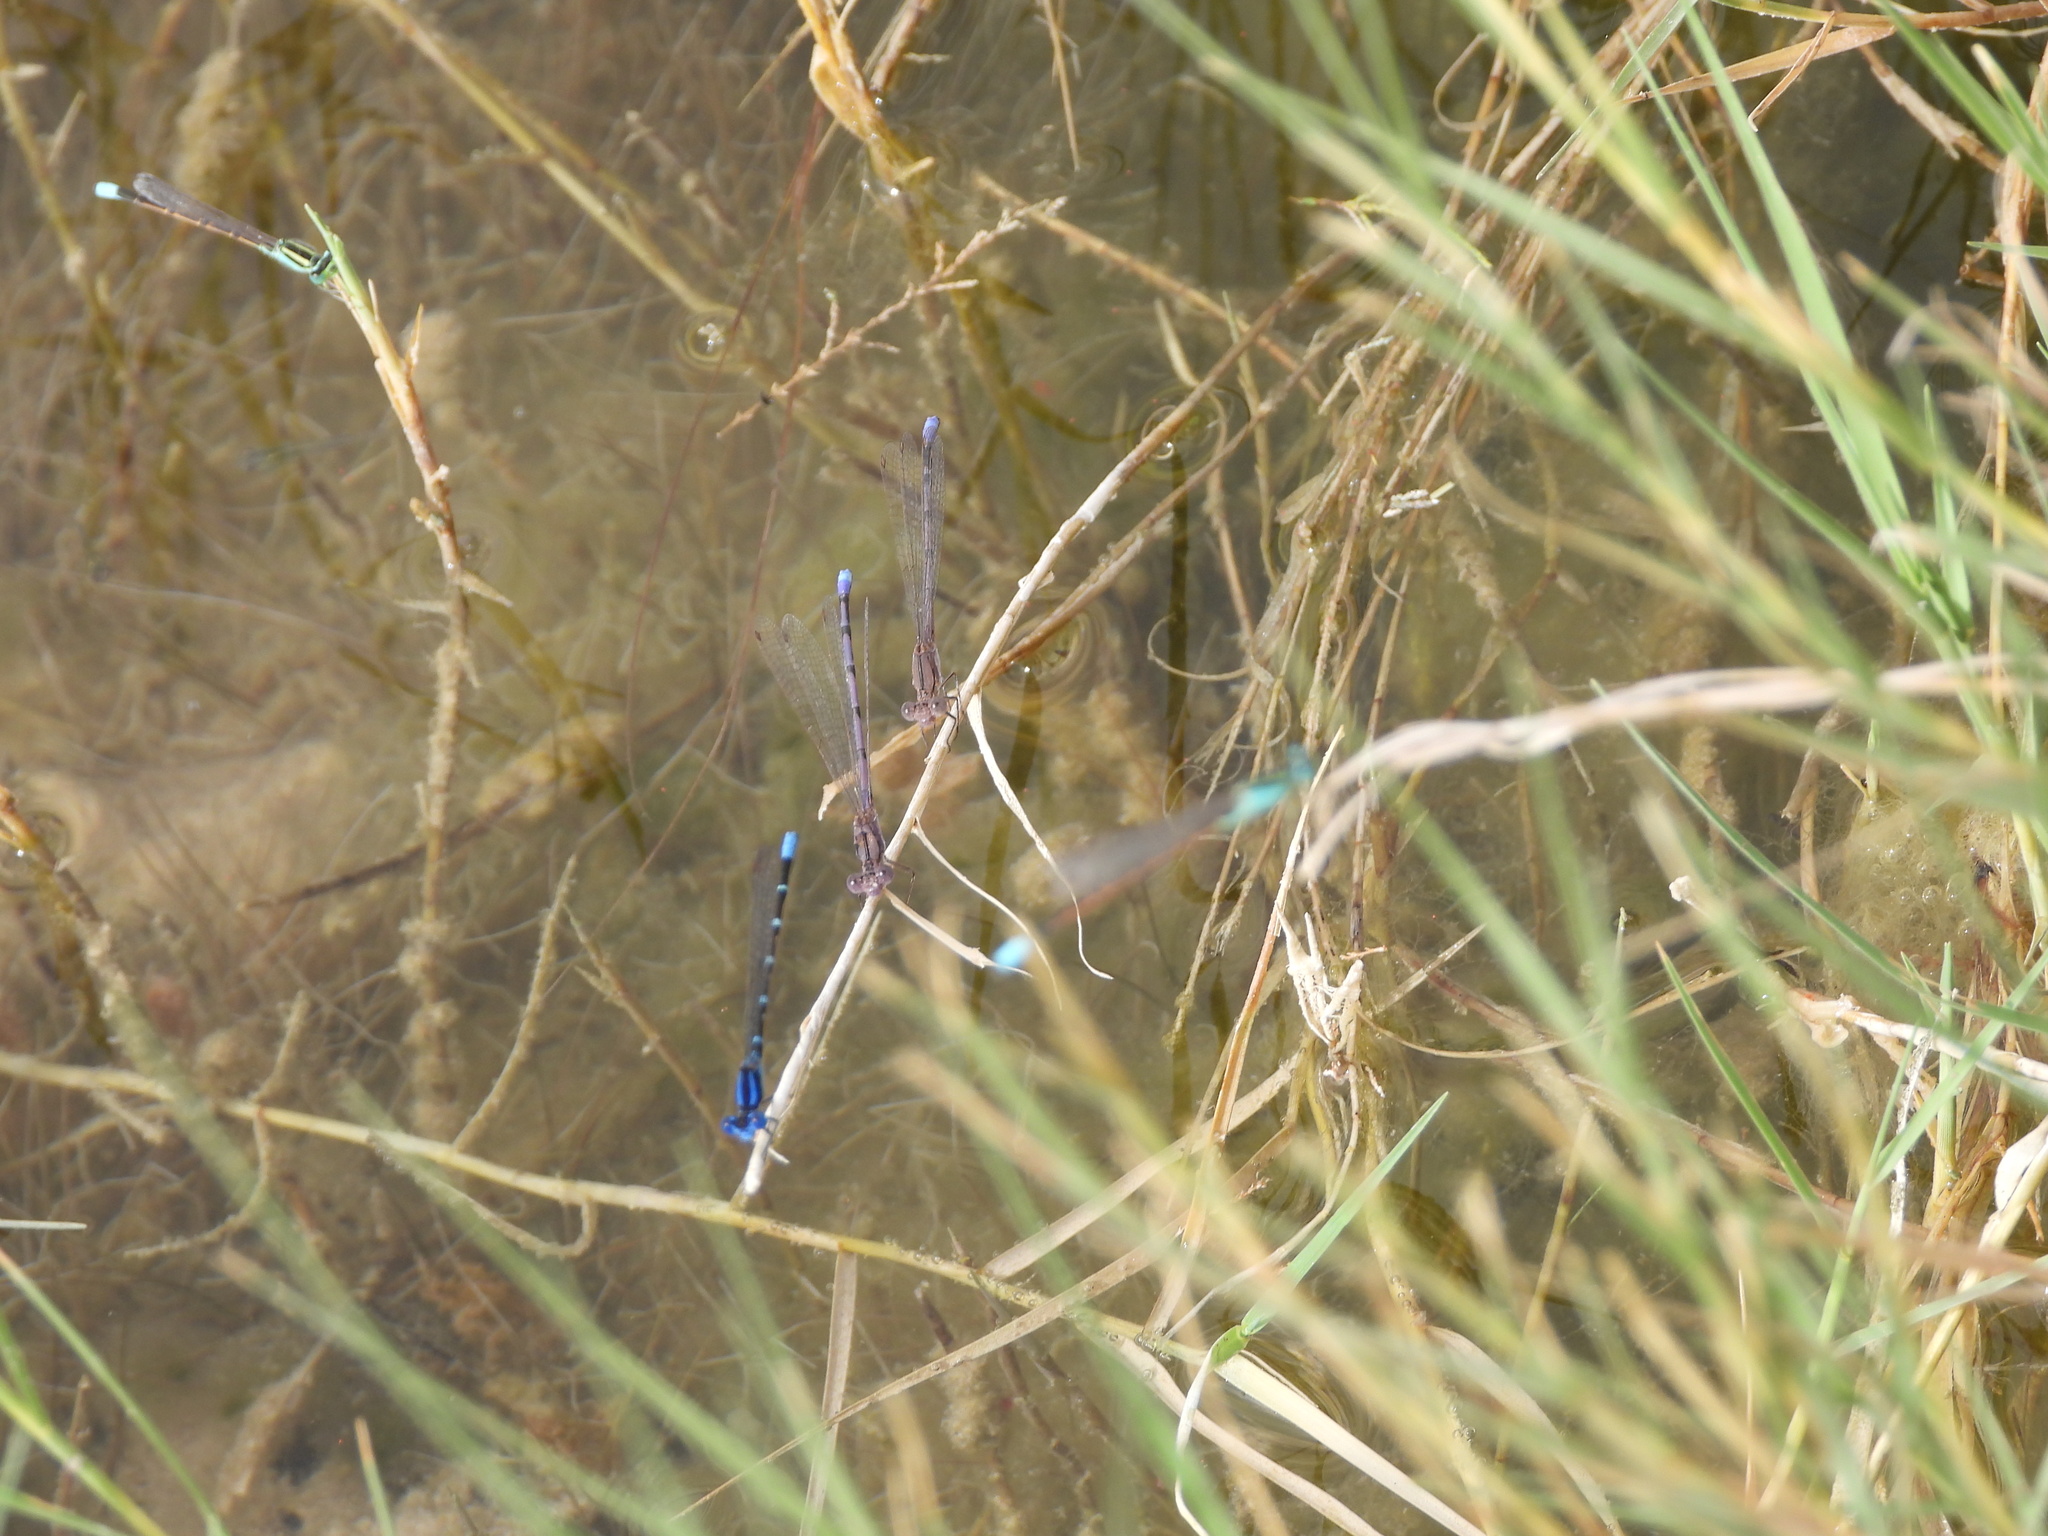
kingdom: Animalia
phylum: Arthropoda
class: Insecta
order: Odonata
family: Coenagrionidae
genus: Argia
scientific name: Argia sedula
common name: Blue-ringed dancer
